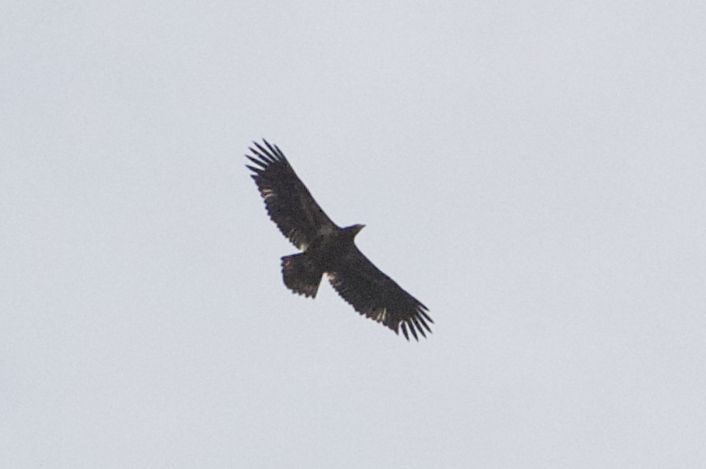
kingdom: Animalia
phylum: Chordata
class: Aves
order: Accipitriformes
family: Accipitridae
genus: Haliaeetus
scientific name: Haliaeetus leucocephalus
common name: Bald eagle
